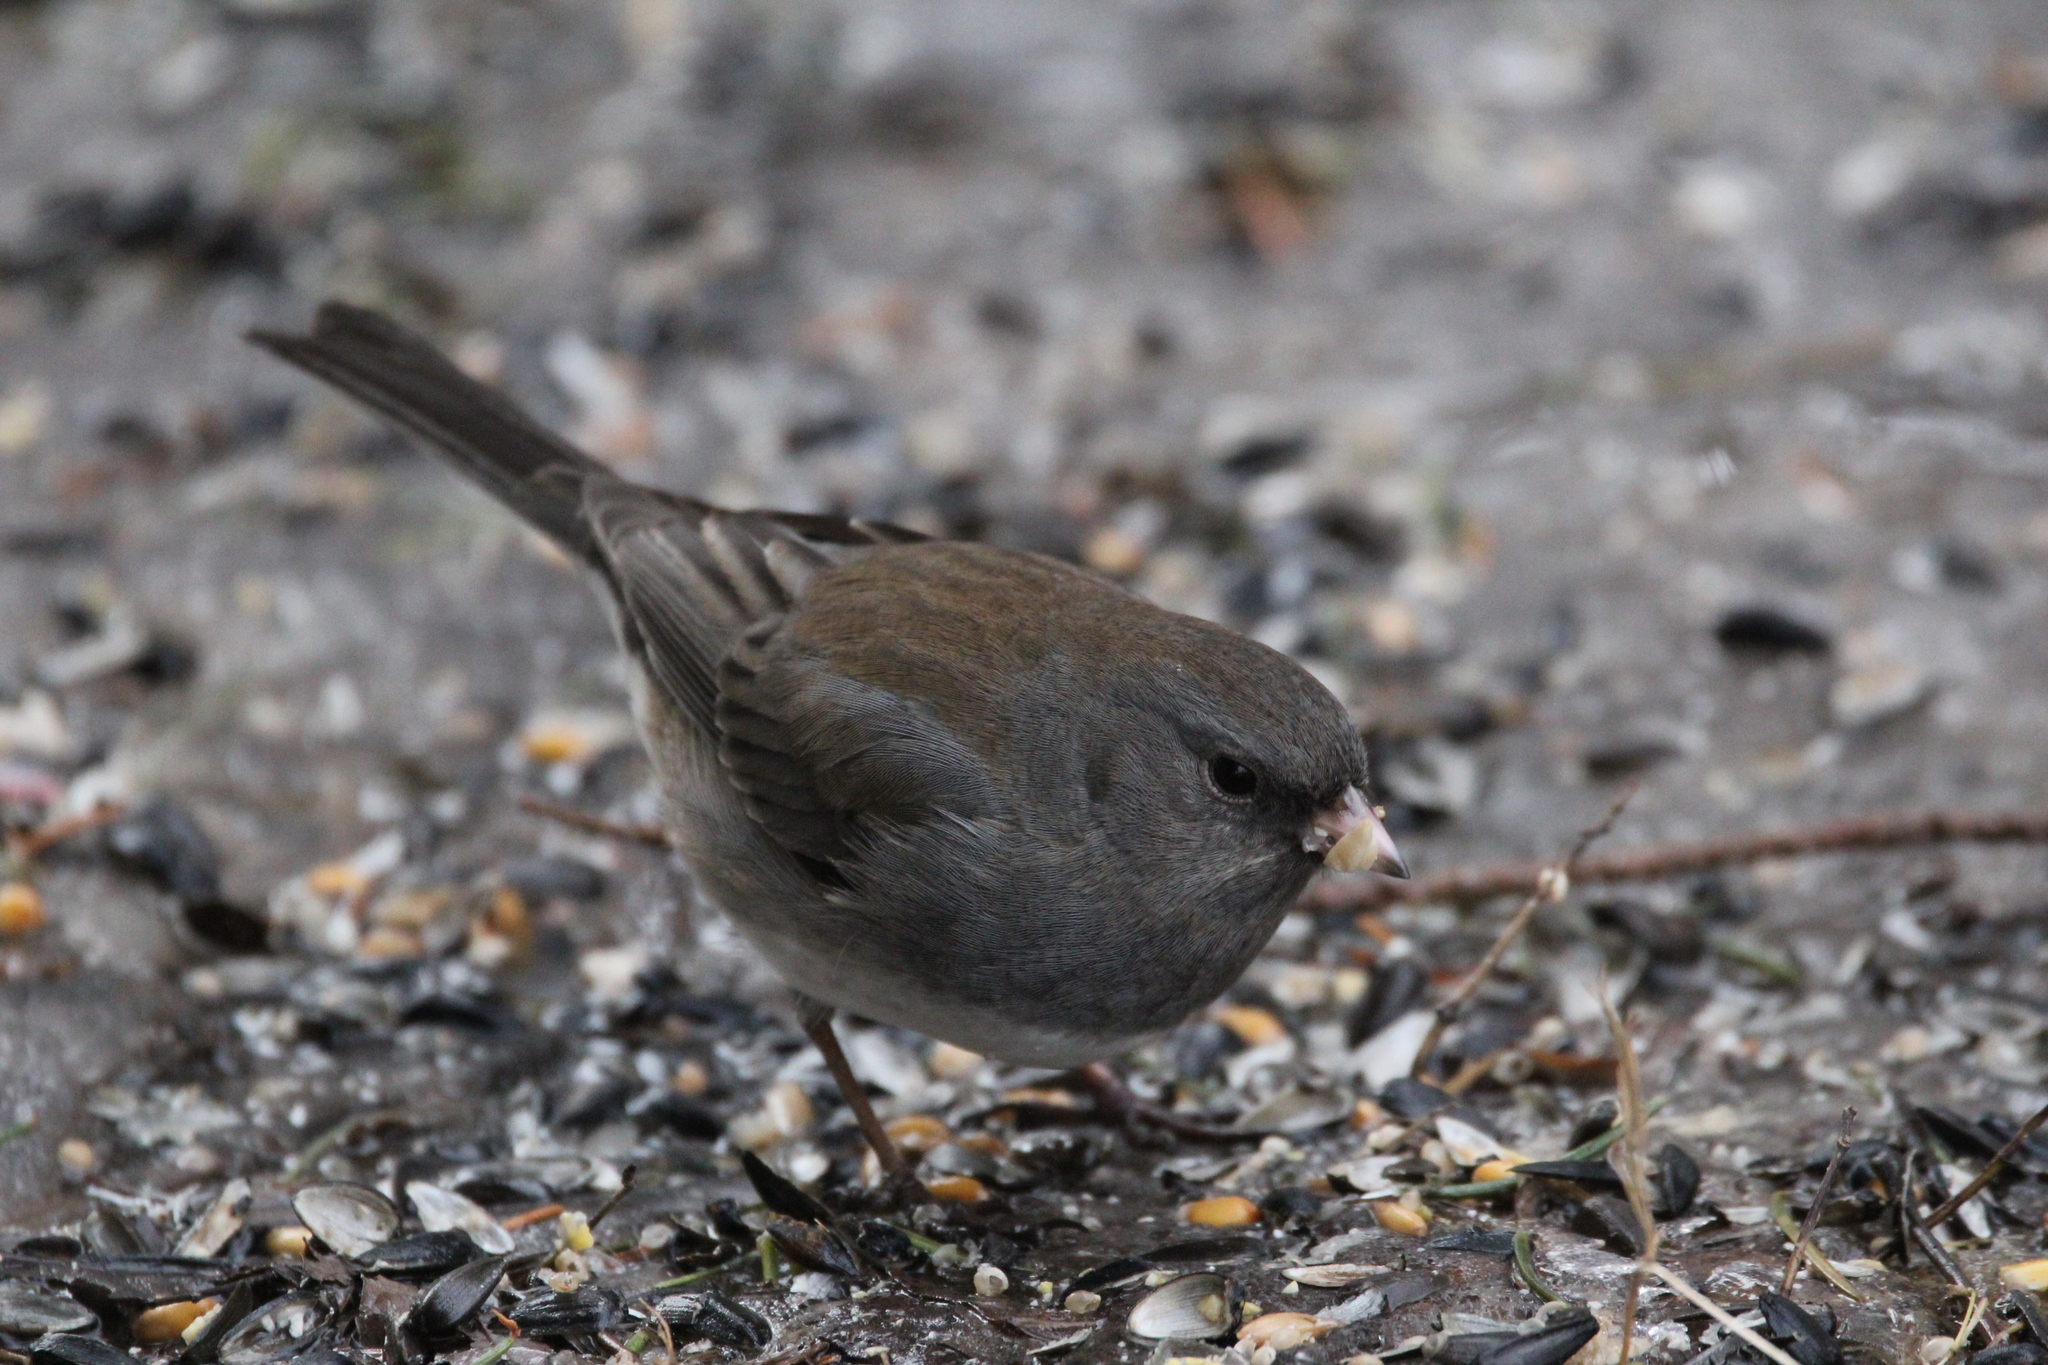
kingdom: Animalia
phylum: Chordata
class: Aves
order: Passeriformes
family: Passerellidae
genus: Junco
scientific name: Junco hyemalis
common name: Dark-eyed junco
